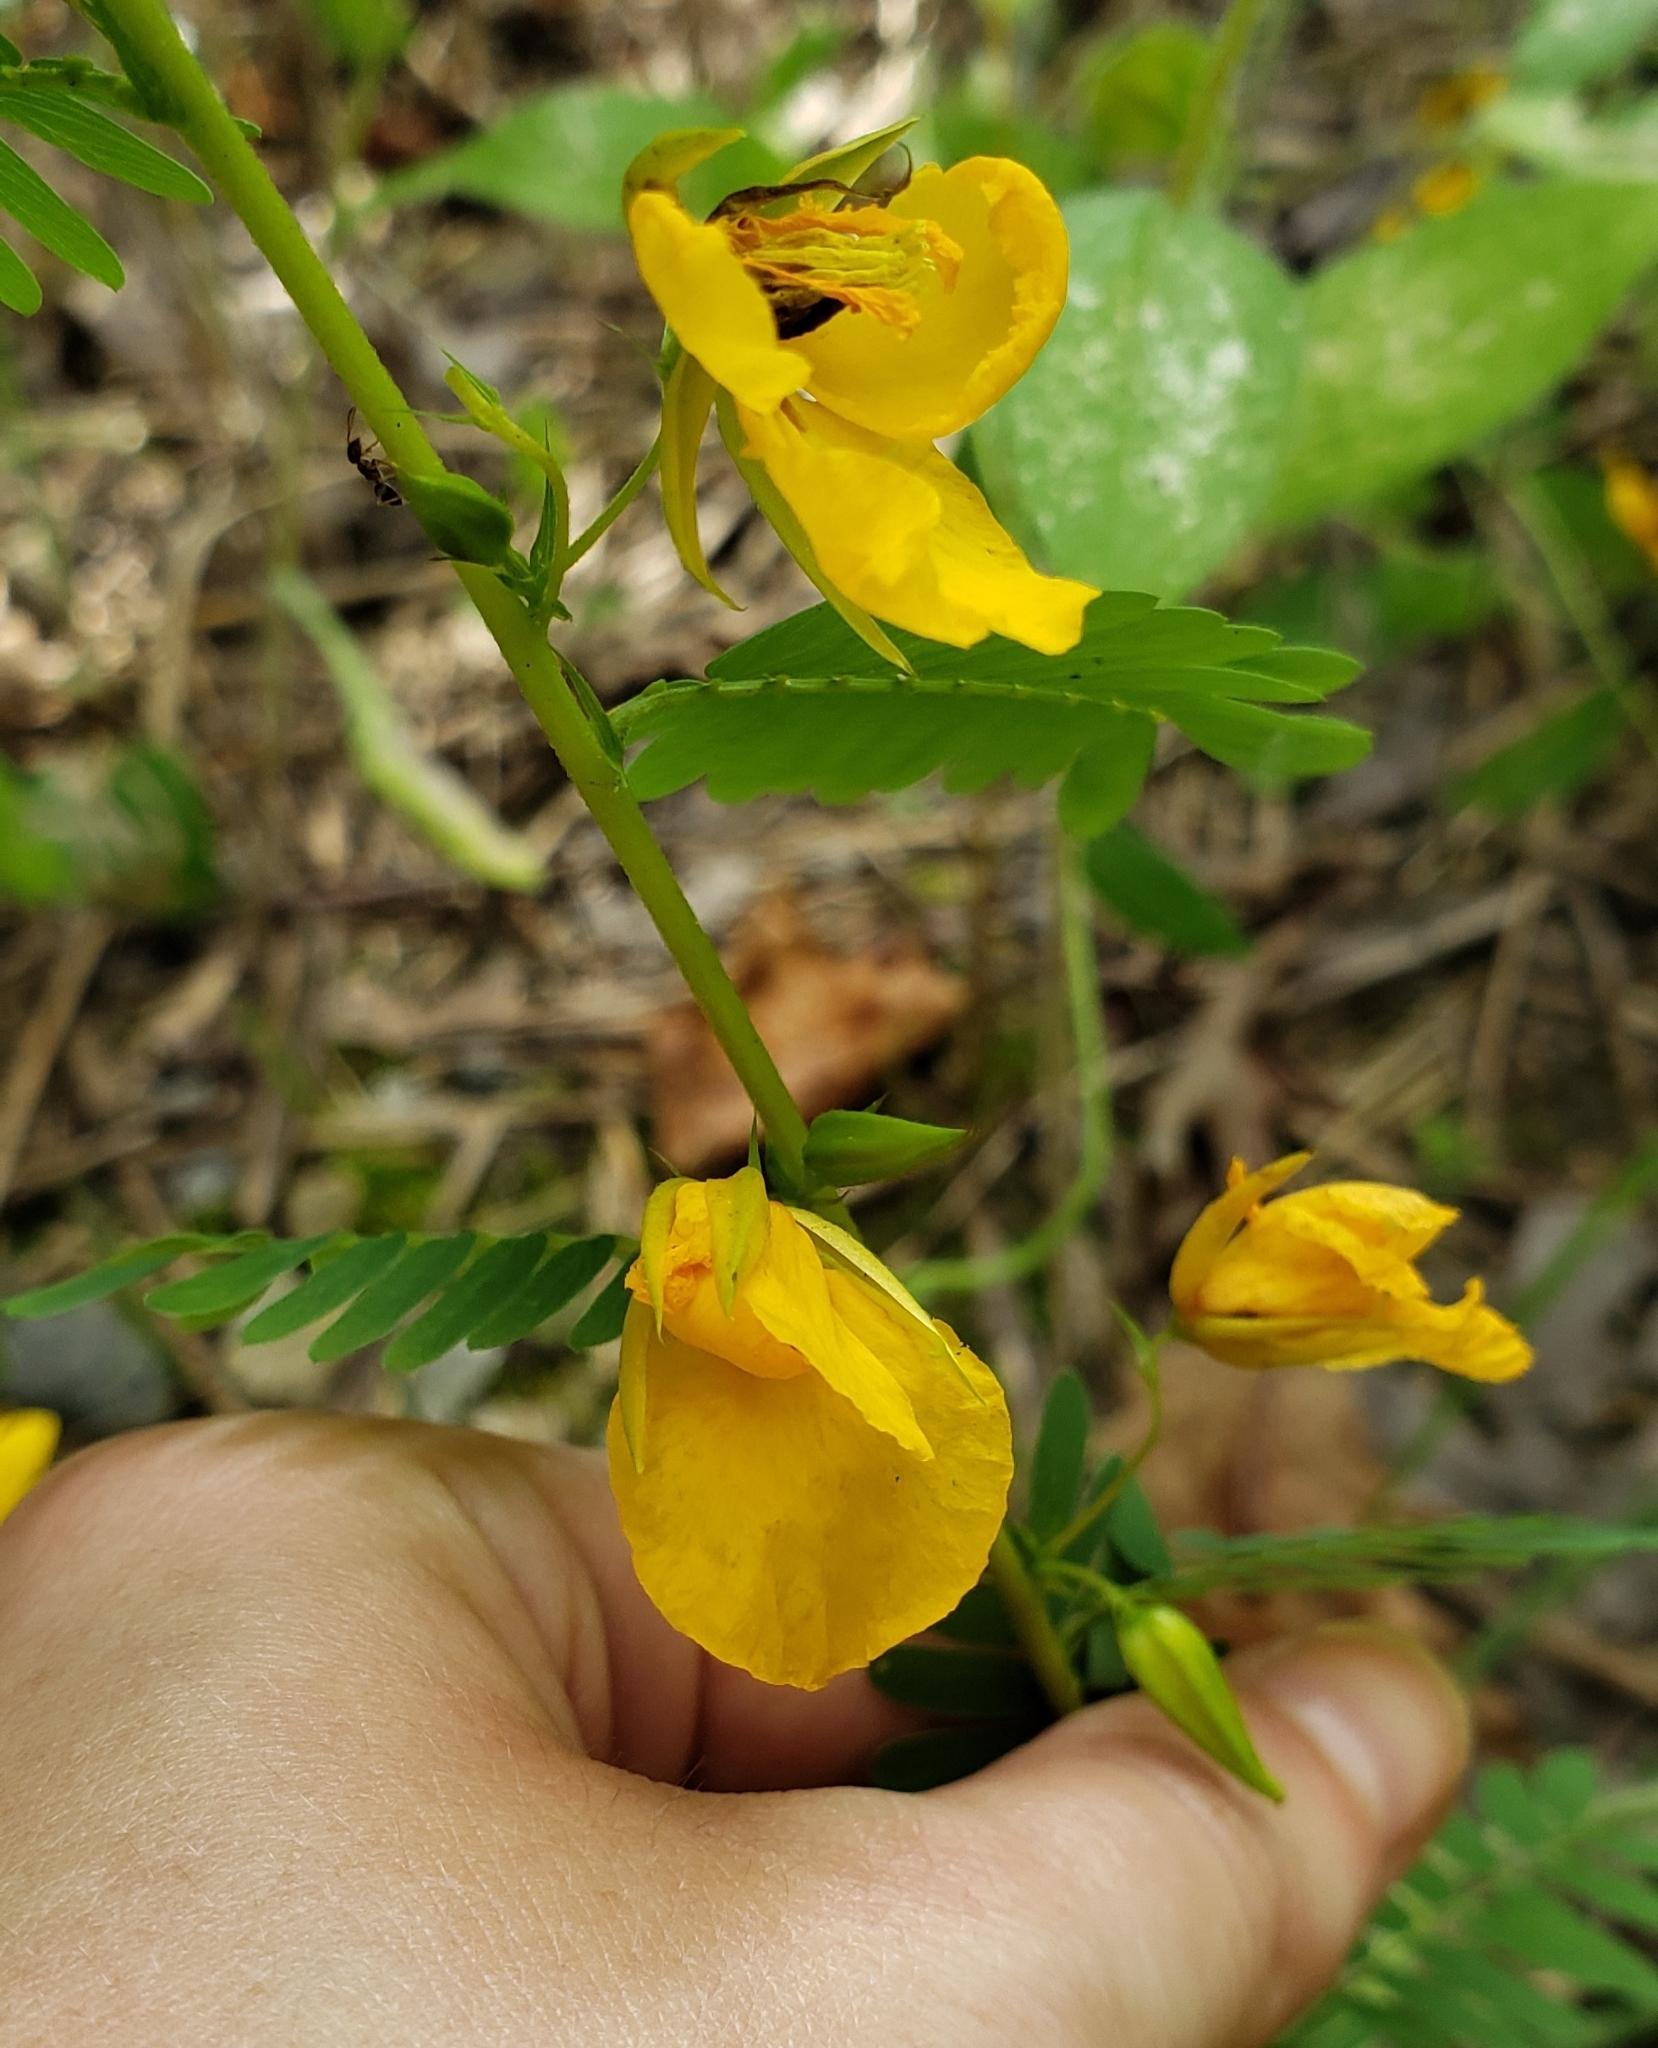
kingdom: Plantae
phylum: Tracheophyta
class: Magnoliopsida
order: Fabales
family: Fabaceae
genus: Chamaecrista
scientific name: Chamaecrista fasciculata
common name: Golden cassia
